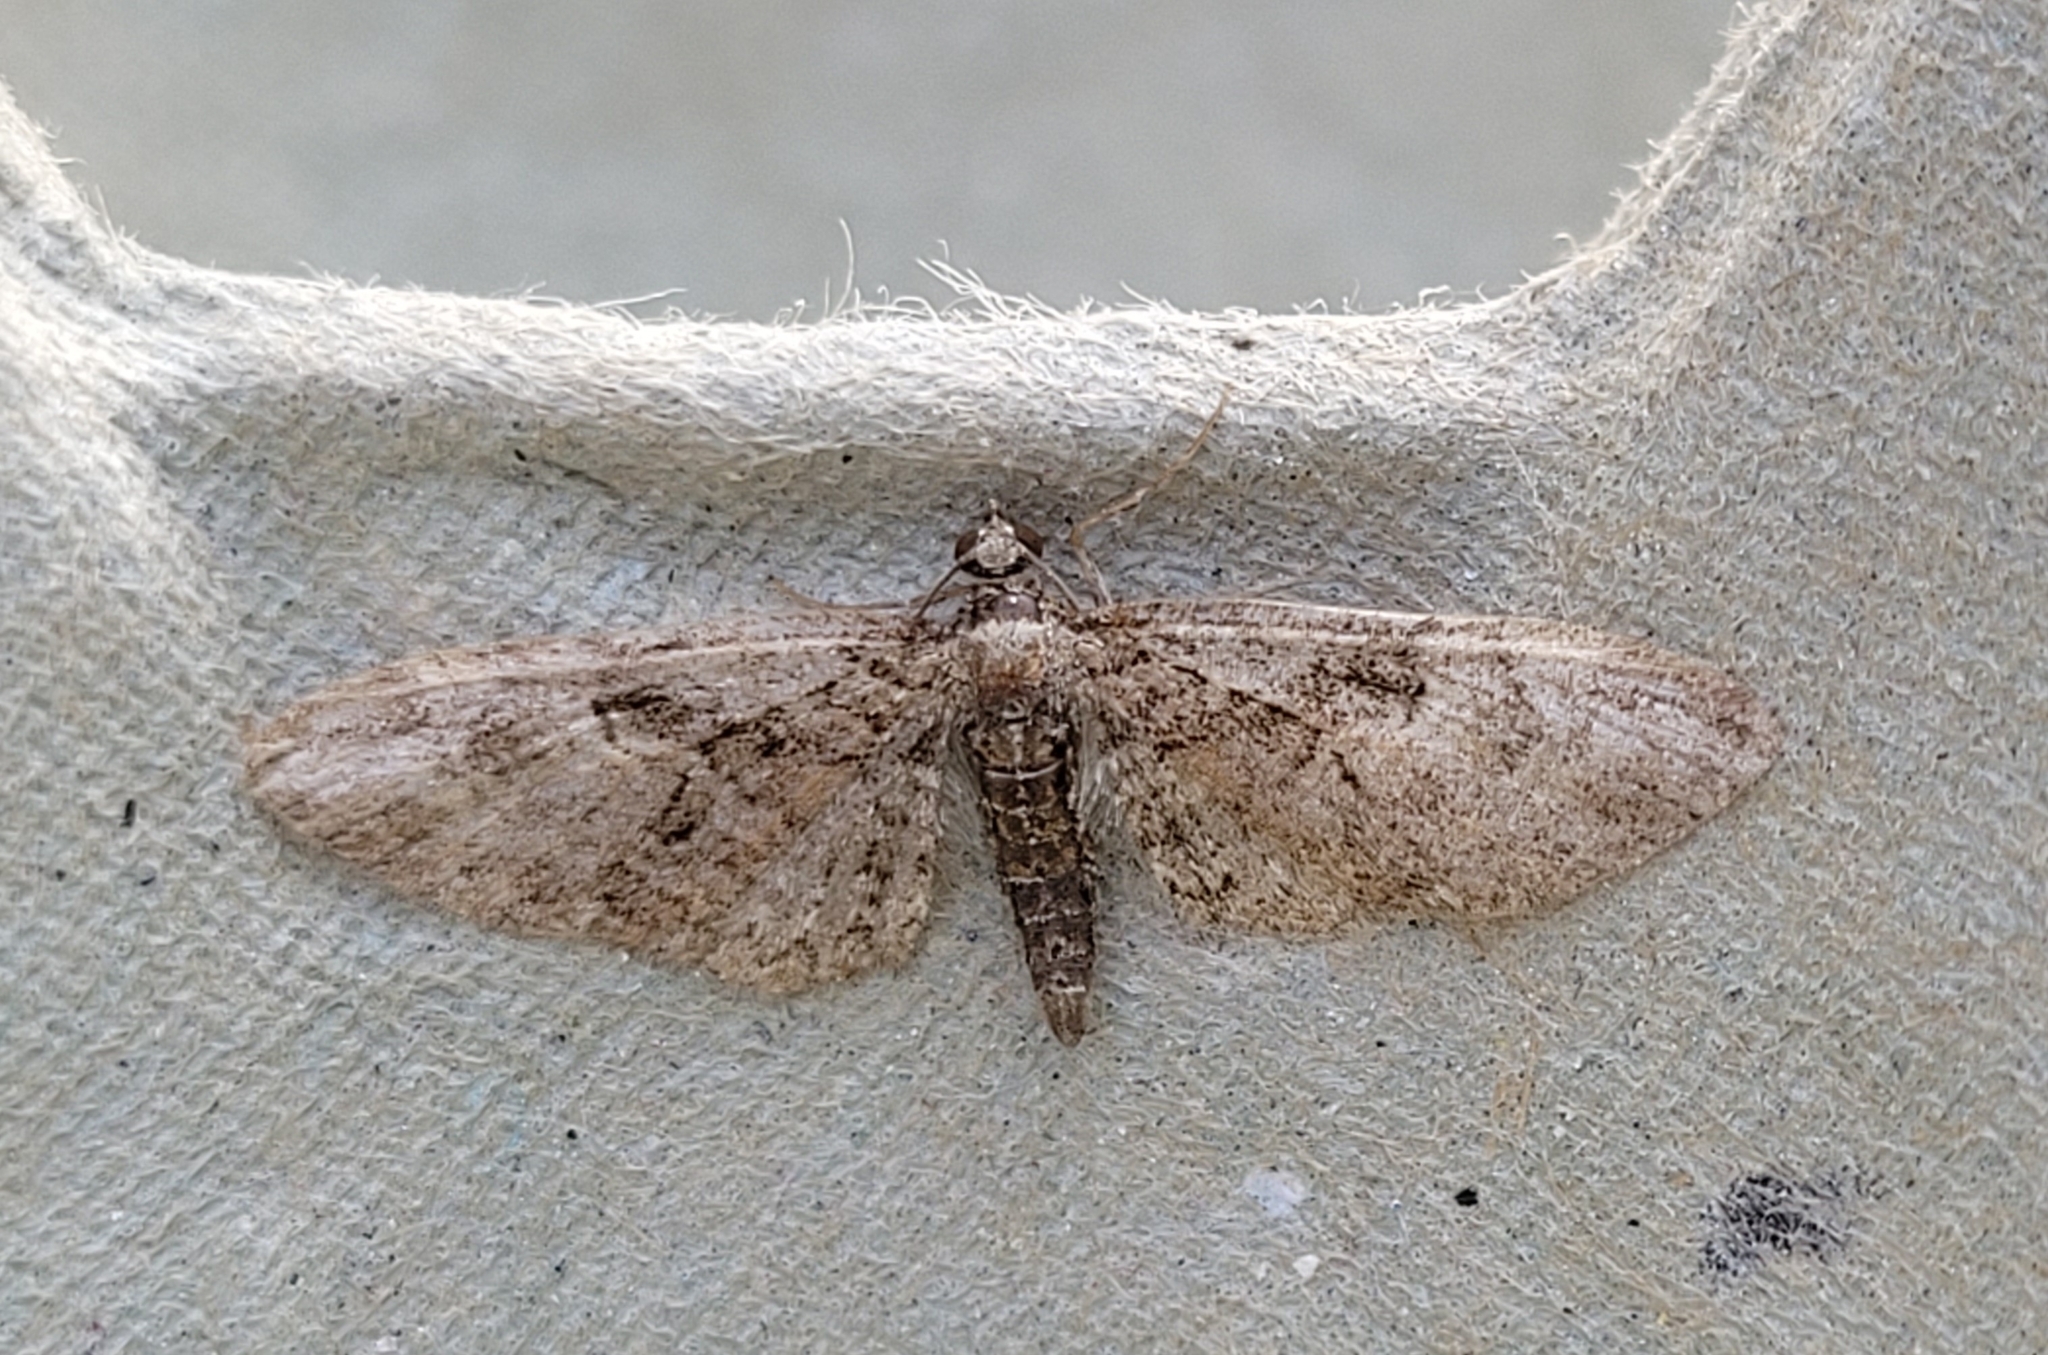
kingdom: Animalia
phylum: Arthropoda
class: Insecta
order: Lepidoptera
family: Geometridae
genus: Eupithecia
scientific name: Eupithecia abbreviata
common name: Brindled pug
